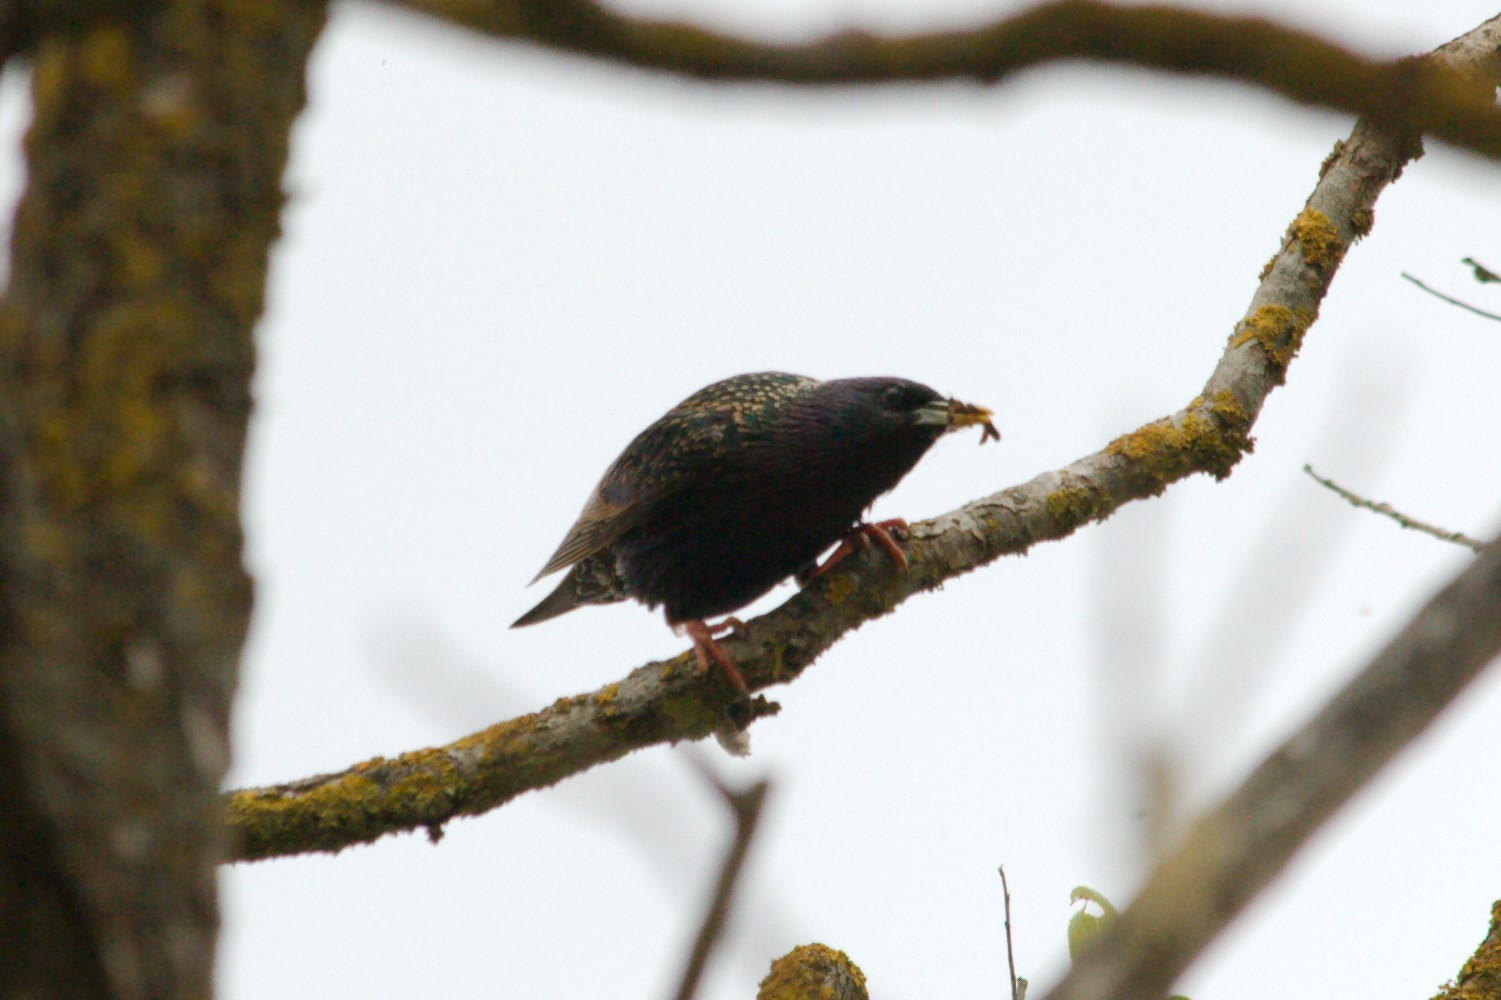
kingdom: Animalia
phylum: Chordata
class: Aves
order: Passeriformes
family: Sturnidae
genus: Sturnus
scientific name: Sturnus vulgaris
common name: Common starling
